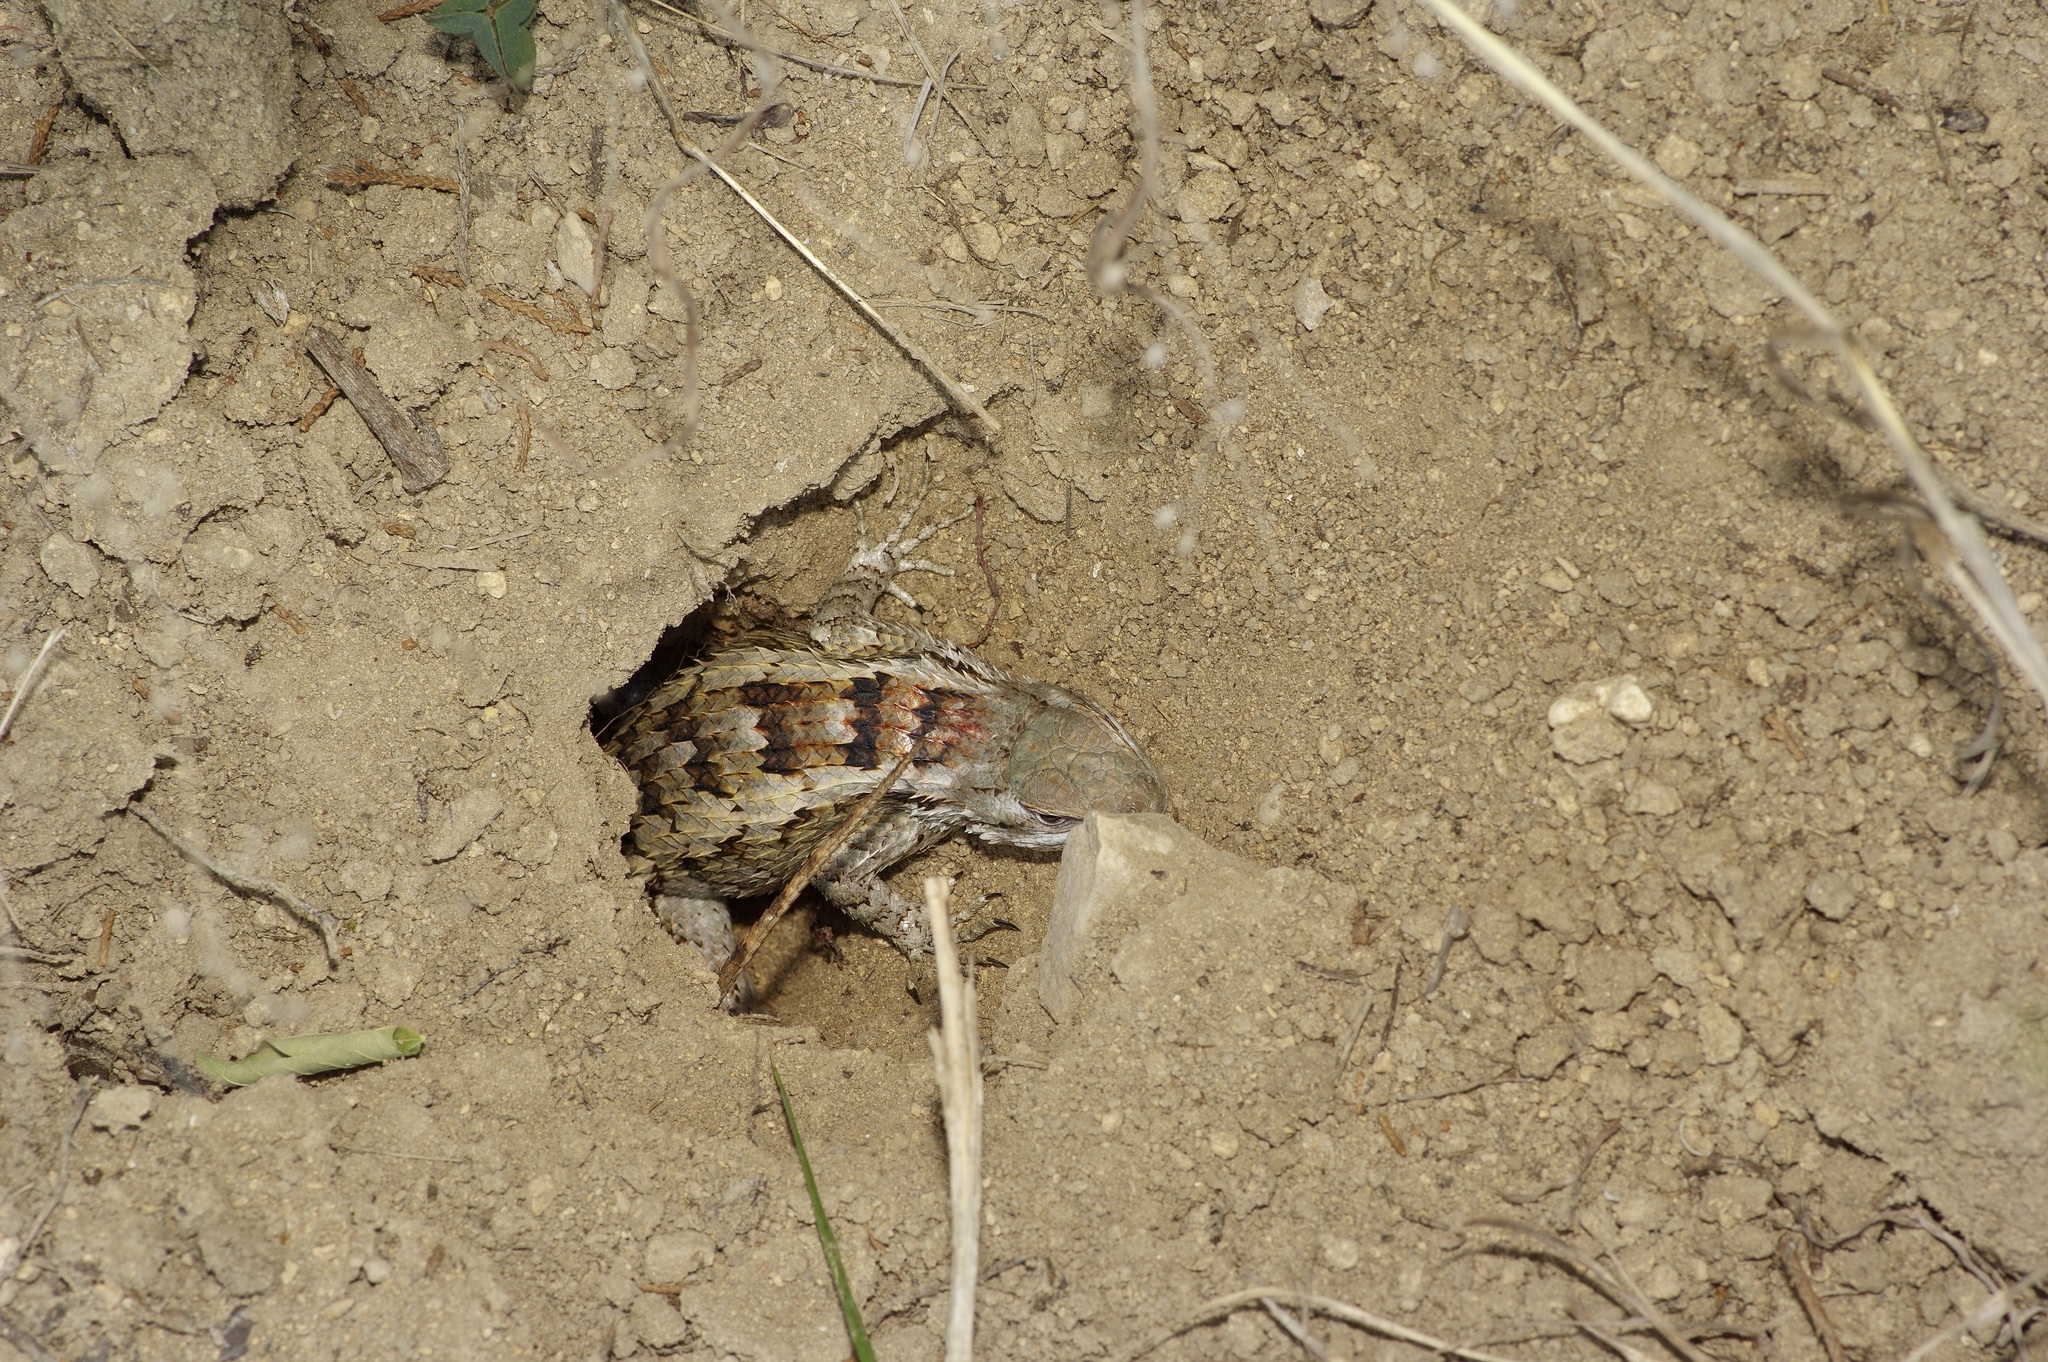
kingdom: Animalia
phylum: Chordata
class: Squamata
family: Phrynosomatidae
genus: Sceloporus
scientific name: Sceloporus olivaceus
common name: Texas spiny lizard
